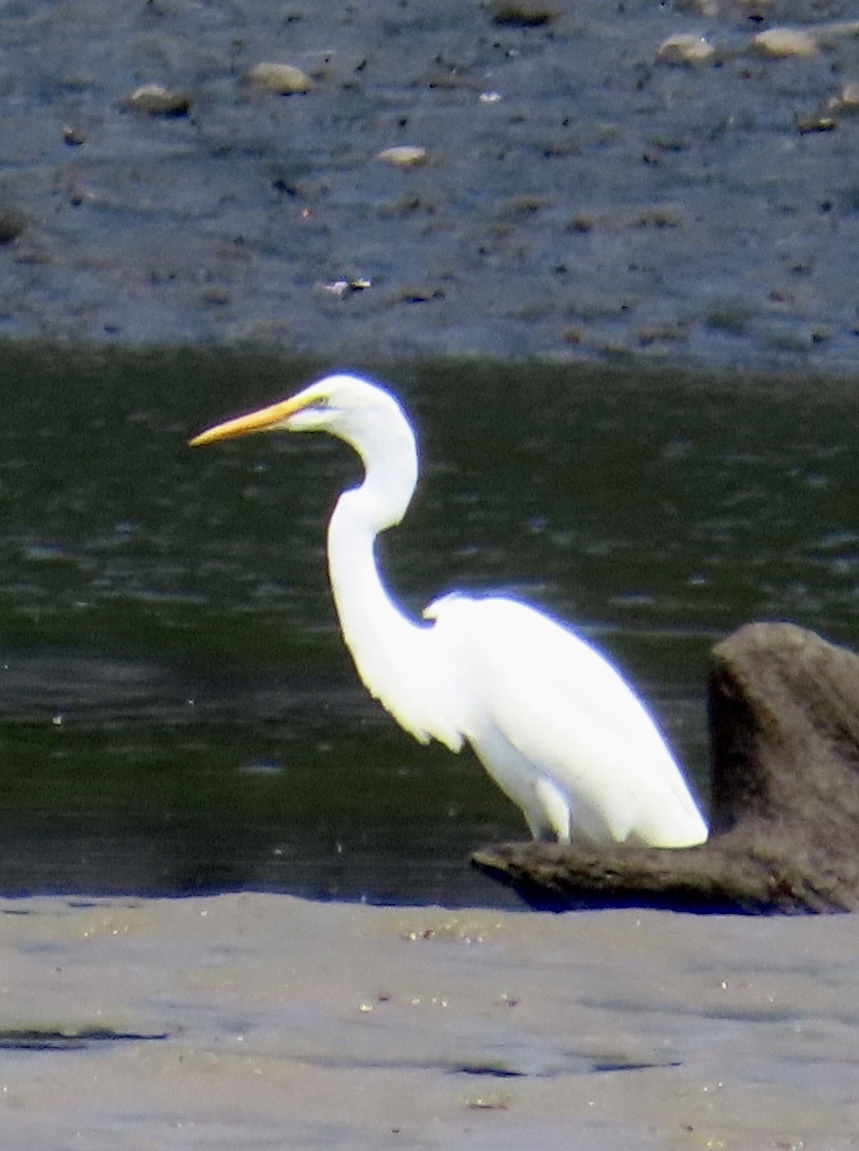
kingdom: Animalia
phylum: Chordata
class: Aves
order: Pelecaniformes
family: Ardeidae
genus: Ardea
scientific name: Ardea alba
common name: Great egret
